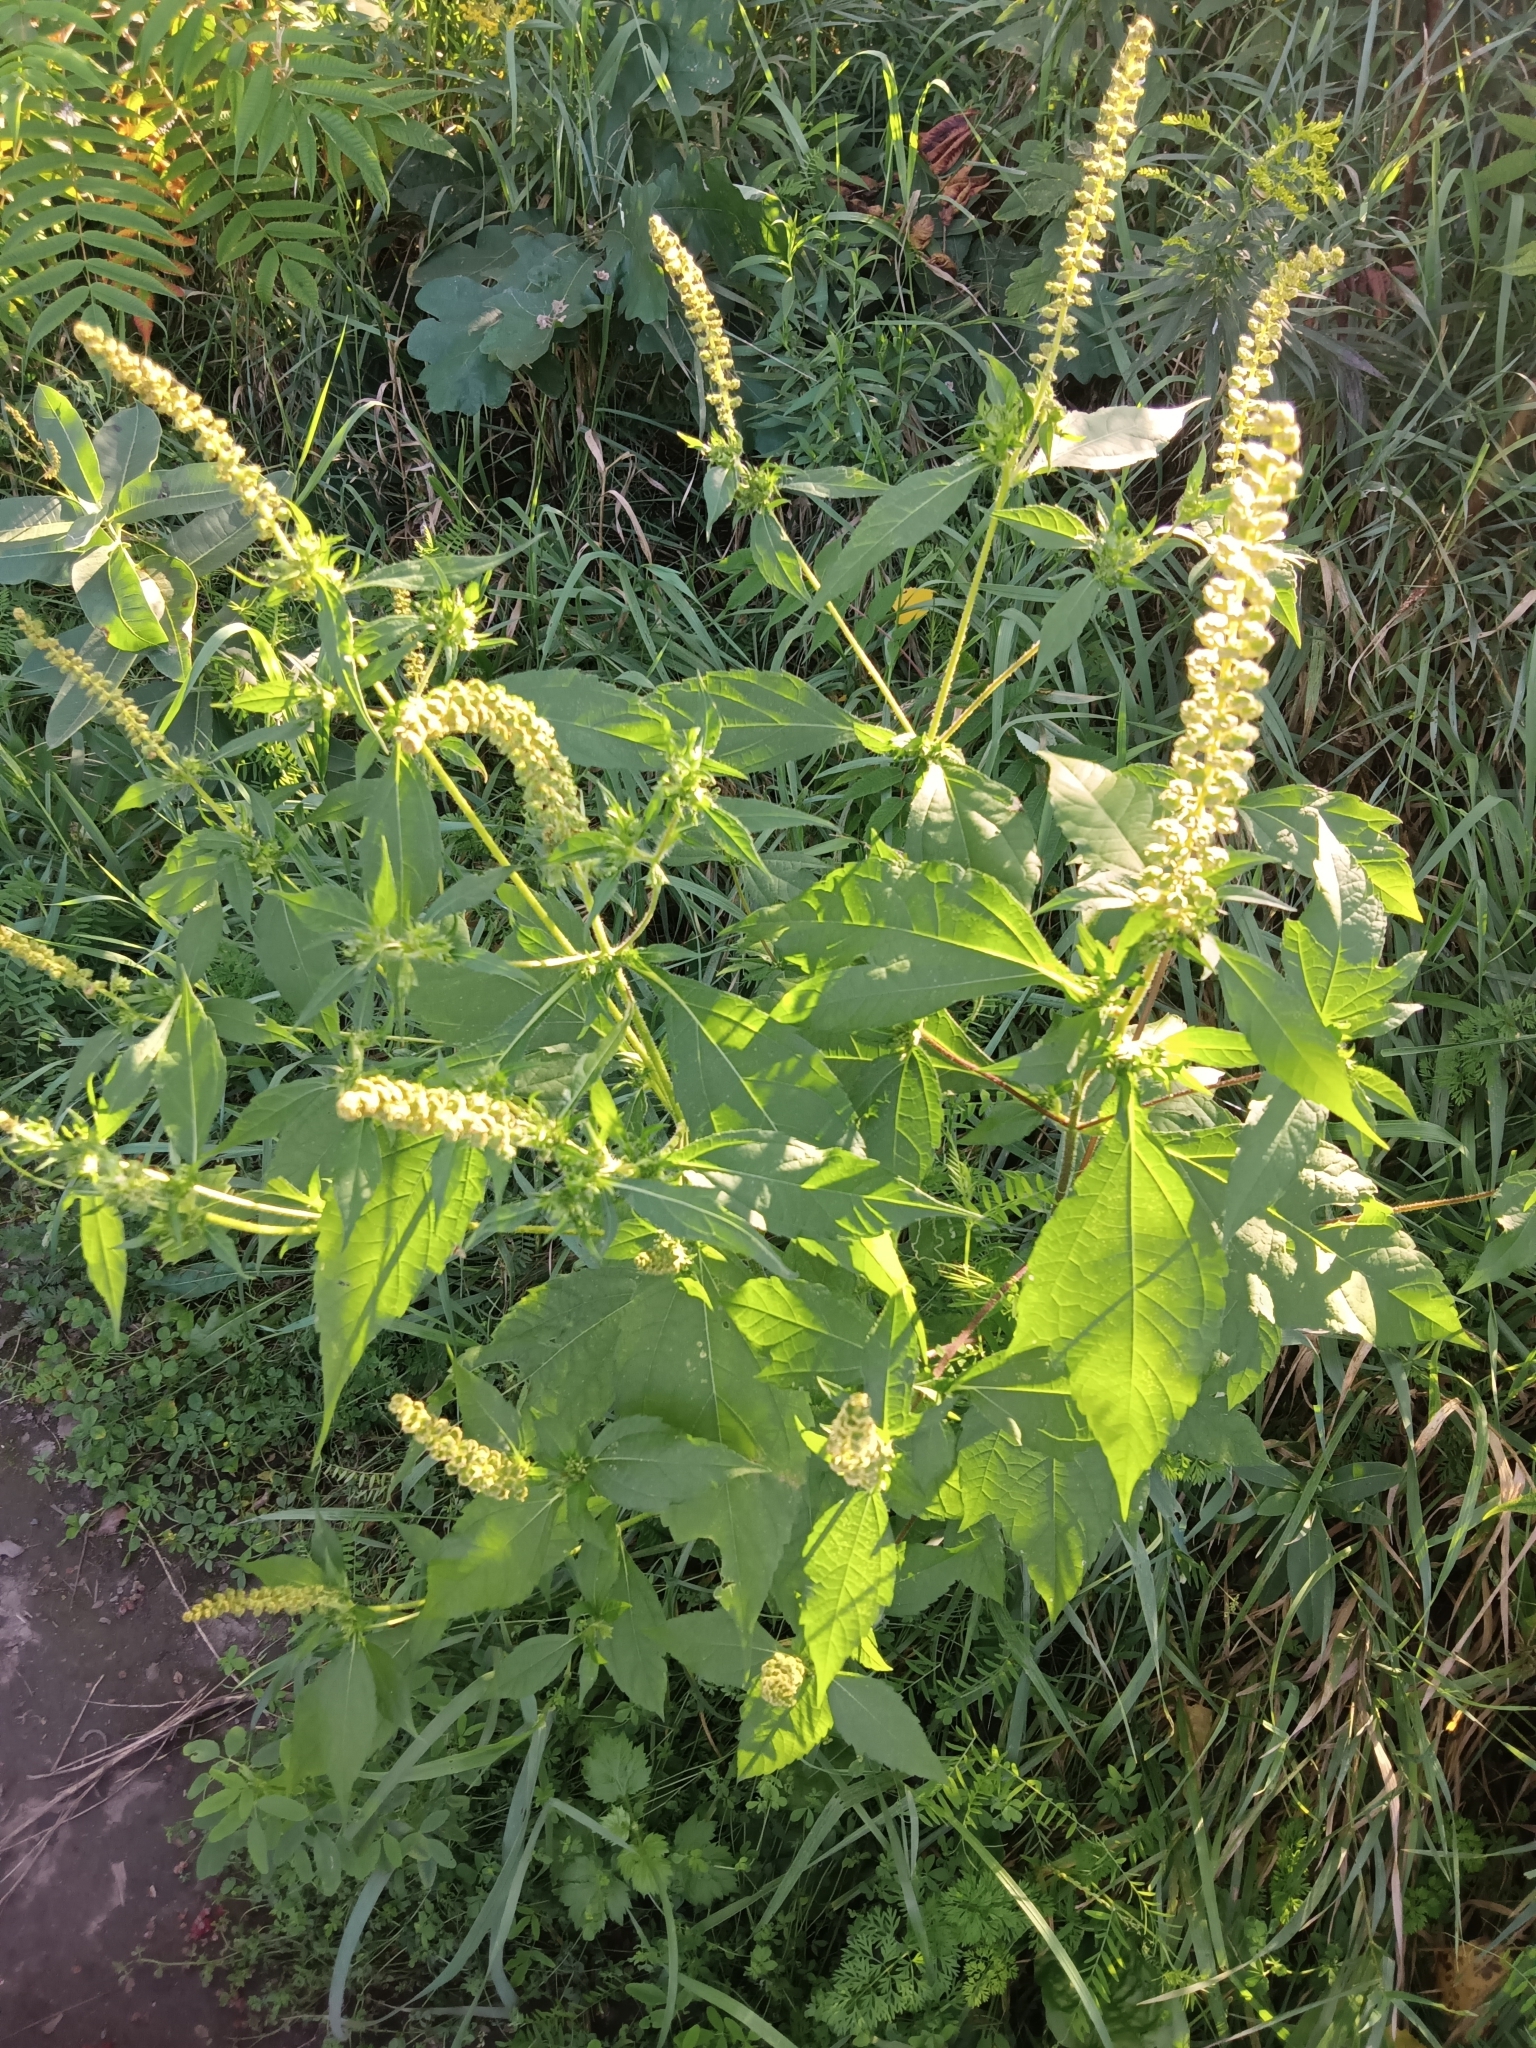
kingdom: Plantae
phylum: Tracheophyta
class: Magnoliopsida
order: Asterales
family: Asteraceae
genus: Ambrosia
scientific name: Ambrosia trifida
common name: Giant ragweed
